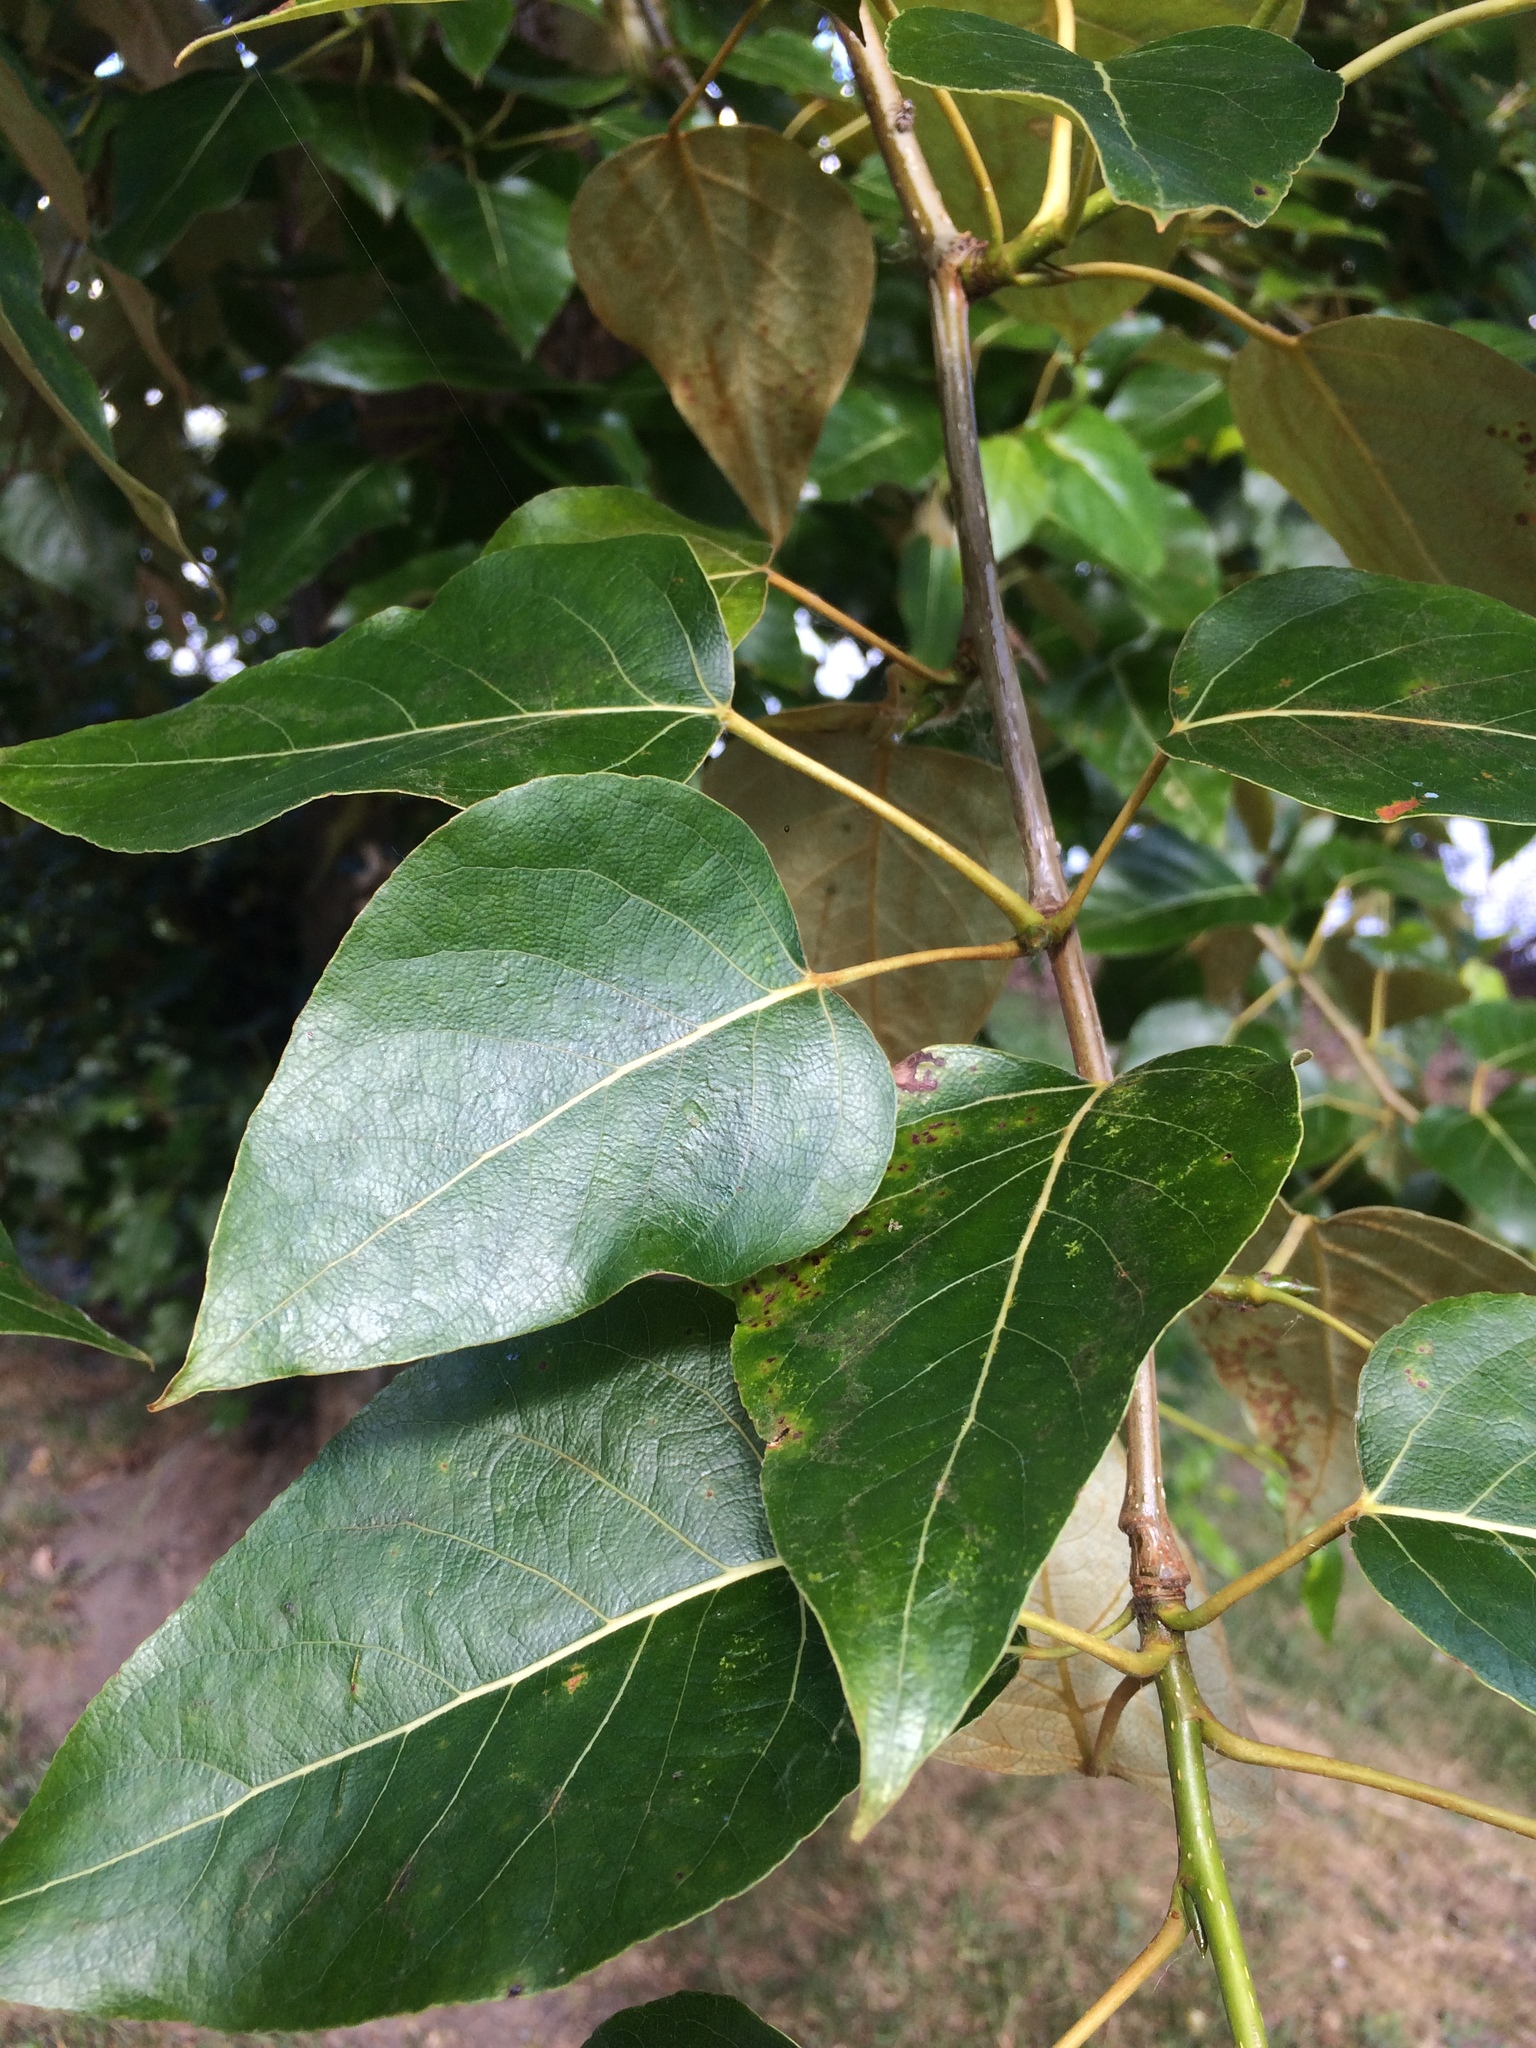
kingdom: Plantae
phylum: Tracheophyta
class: Magnoliopsida
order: Malpighiales
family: Salicaceae
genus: Populus
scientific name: Populus trichocarpa
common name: Black cottonwood
